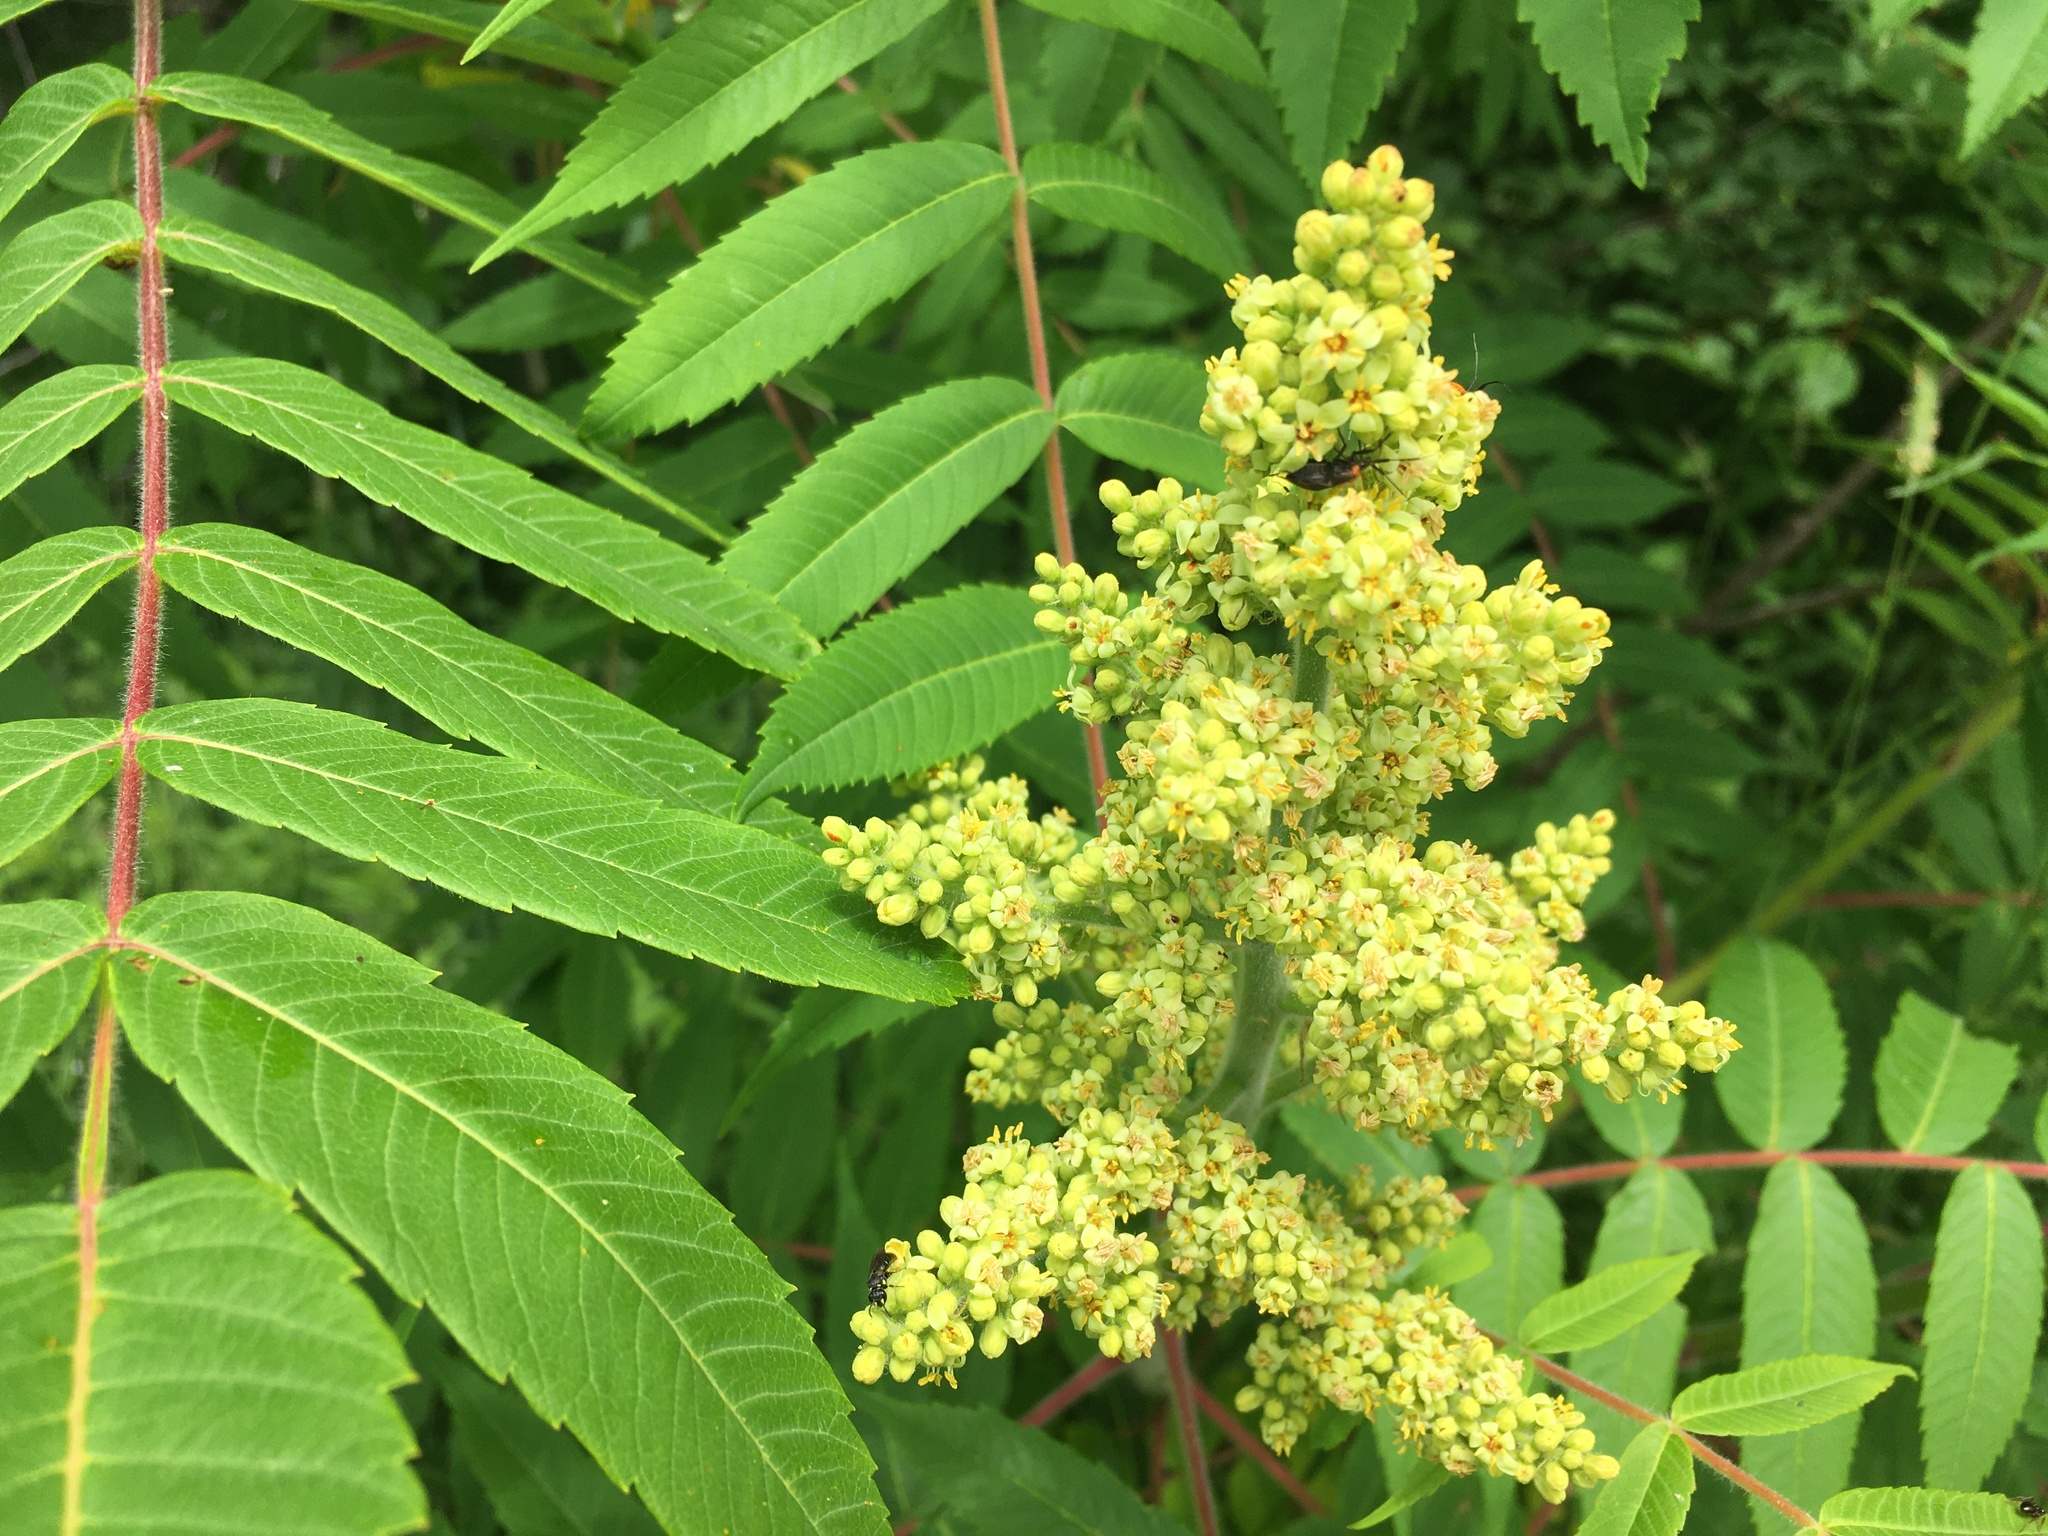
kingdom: Plantae
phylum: Tracheophyta
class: Magnoliopsida
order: Sapindales
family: Anacardiaceae
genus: Rhus
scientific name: Rhus typhina
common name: Staghorn sumac
